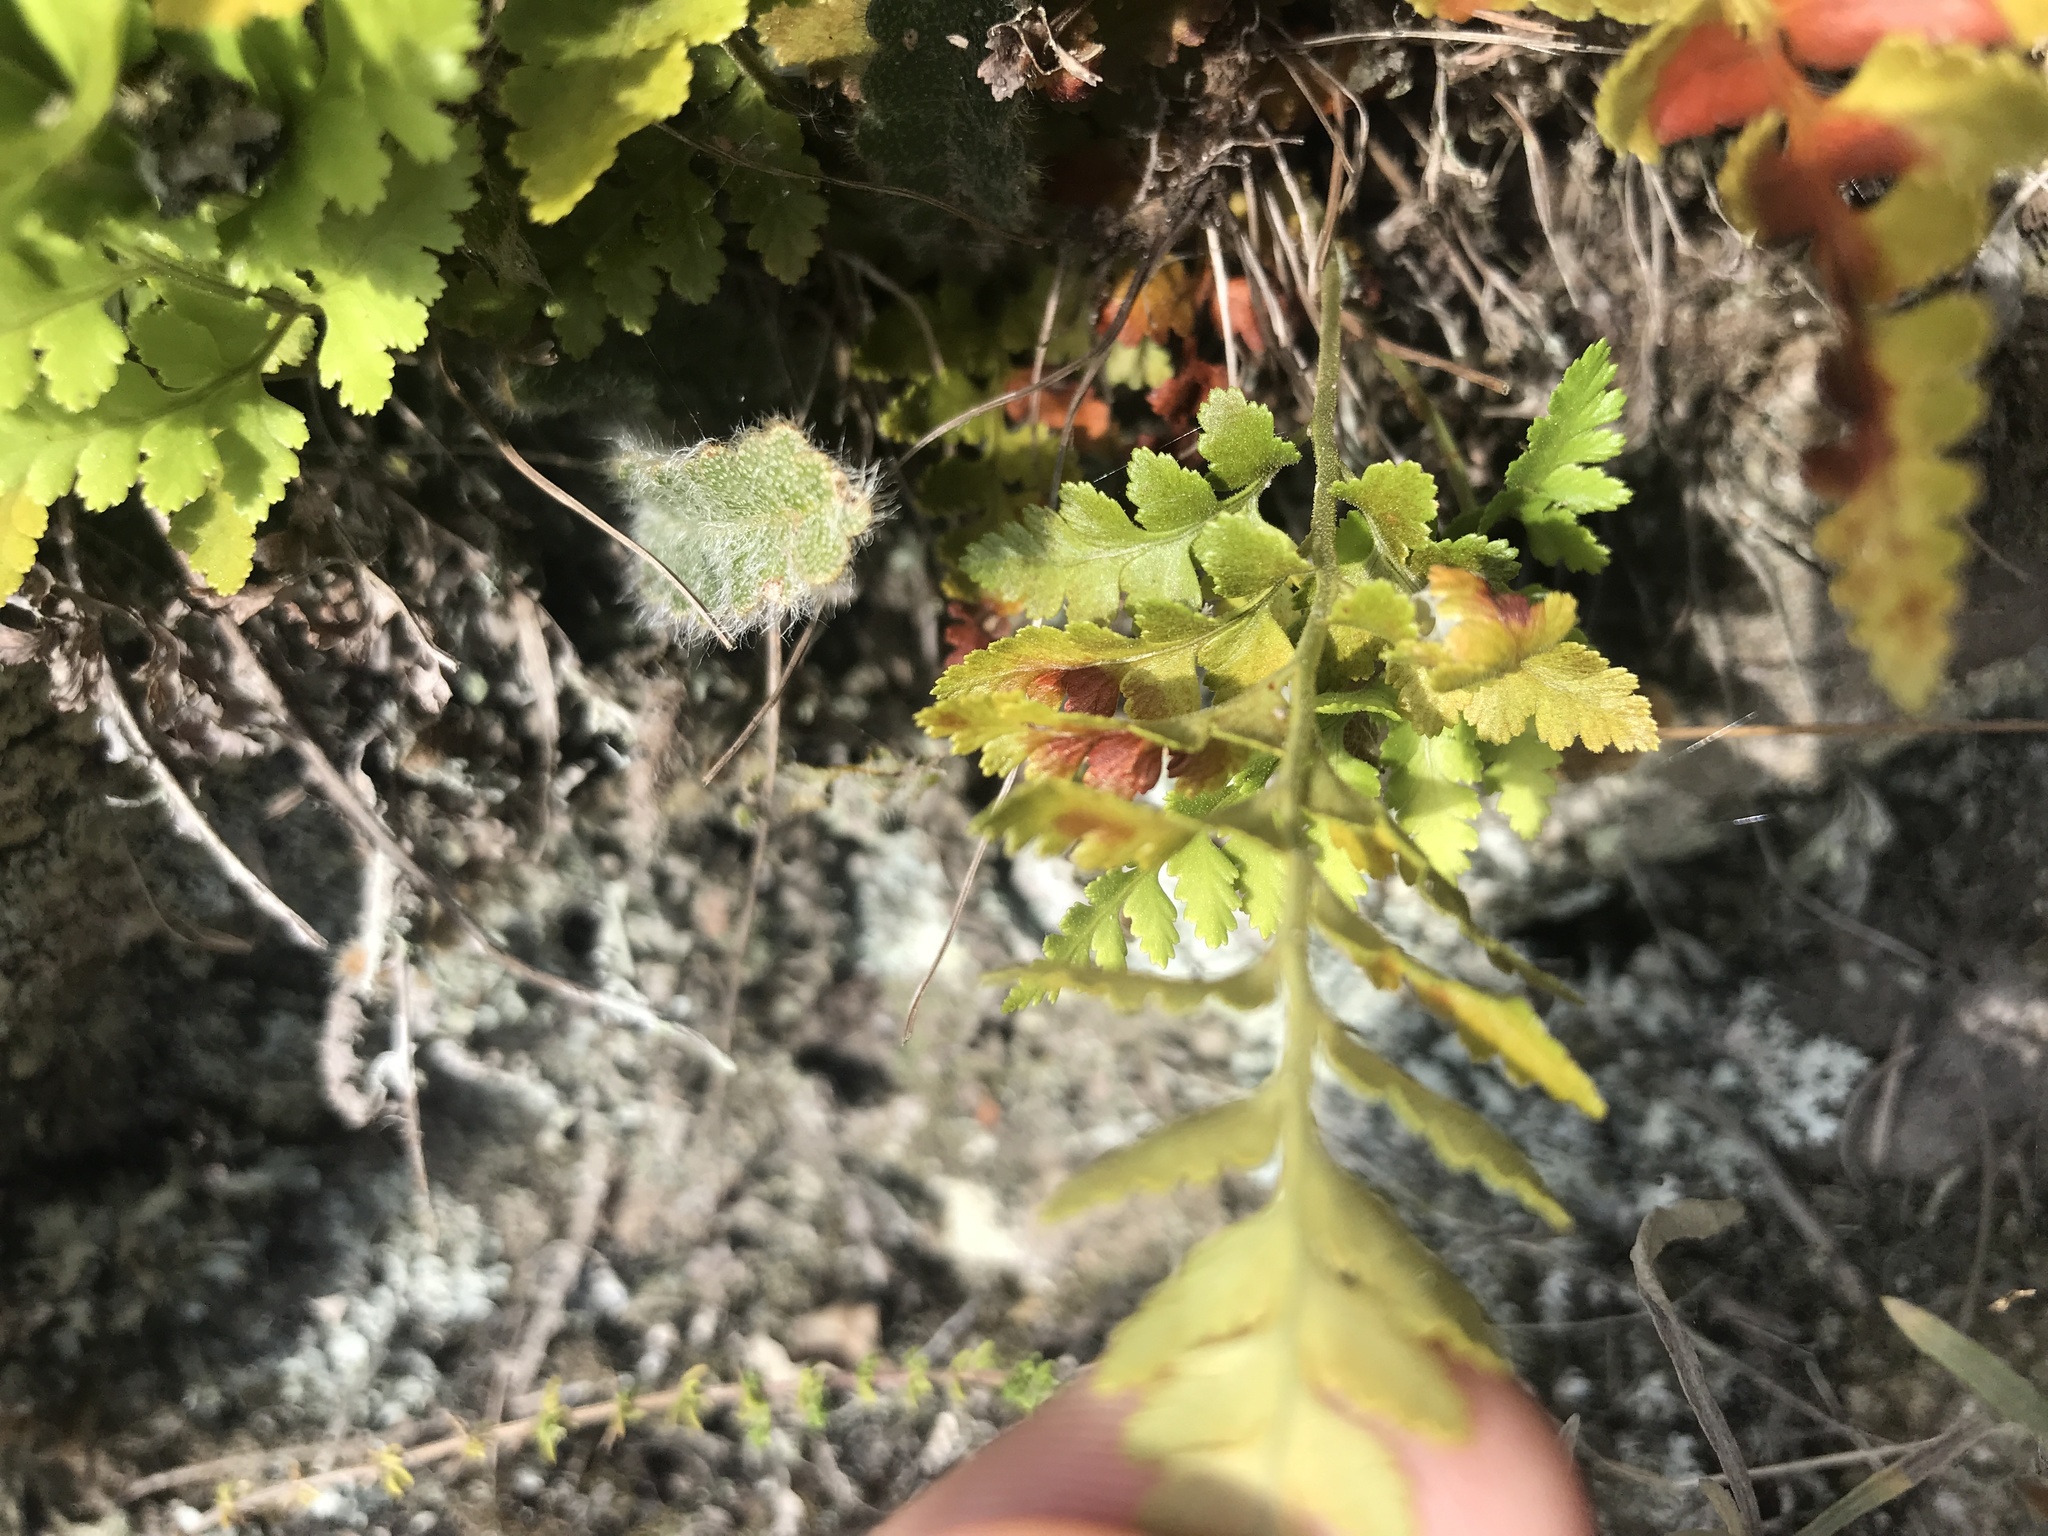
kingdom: Plantae
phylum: Tracheophyta
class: Polypodiopsida
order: Polypodiales
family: Dryopteridaceae
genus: Rumohra
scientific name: Rumohra adiantiformis
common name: Leather fern
